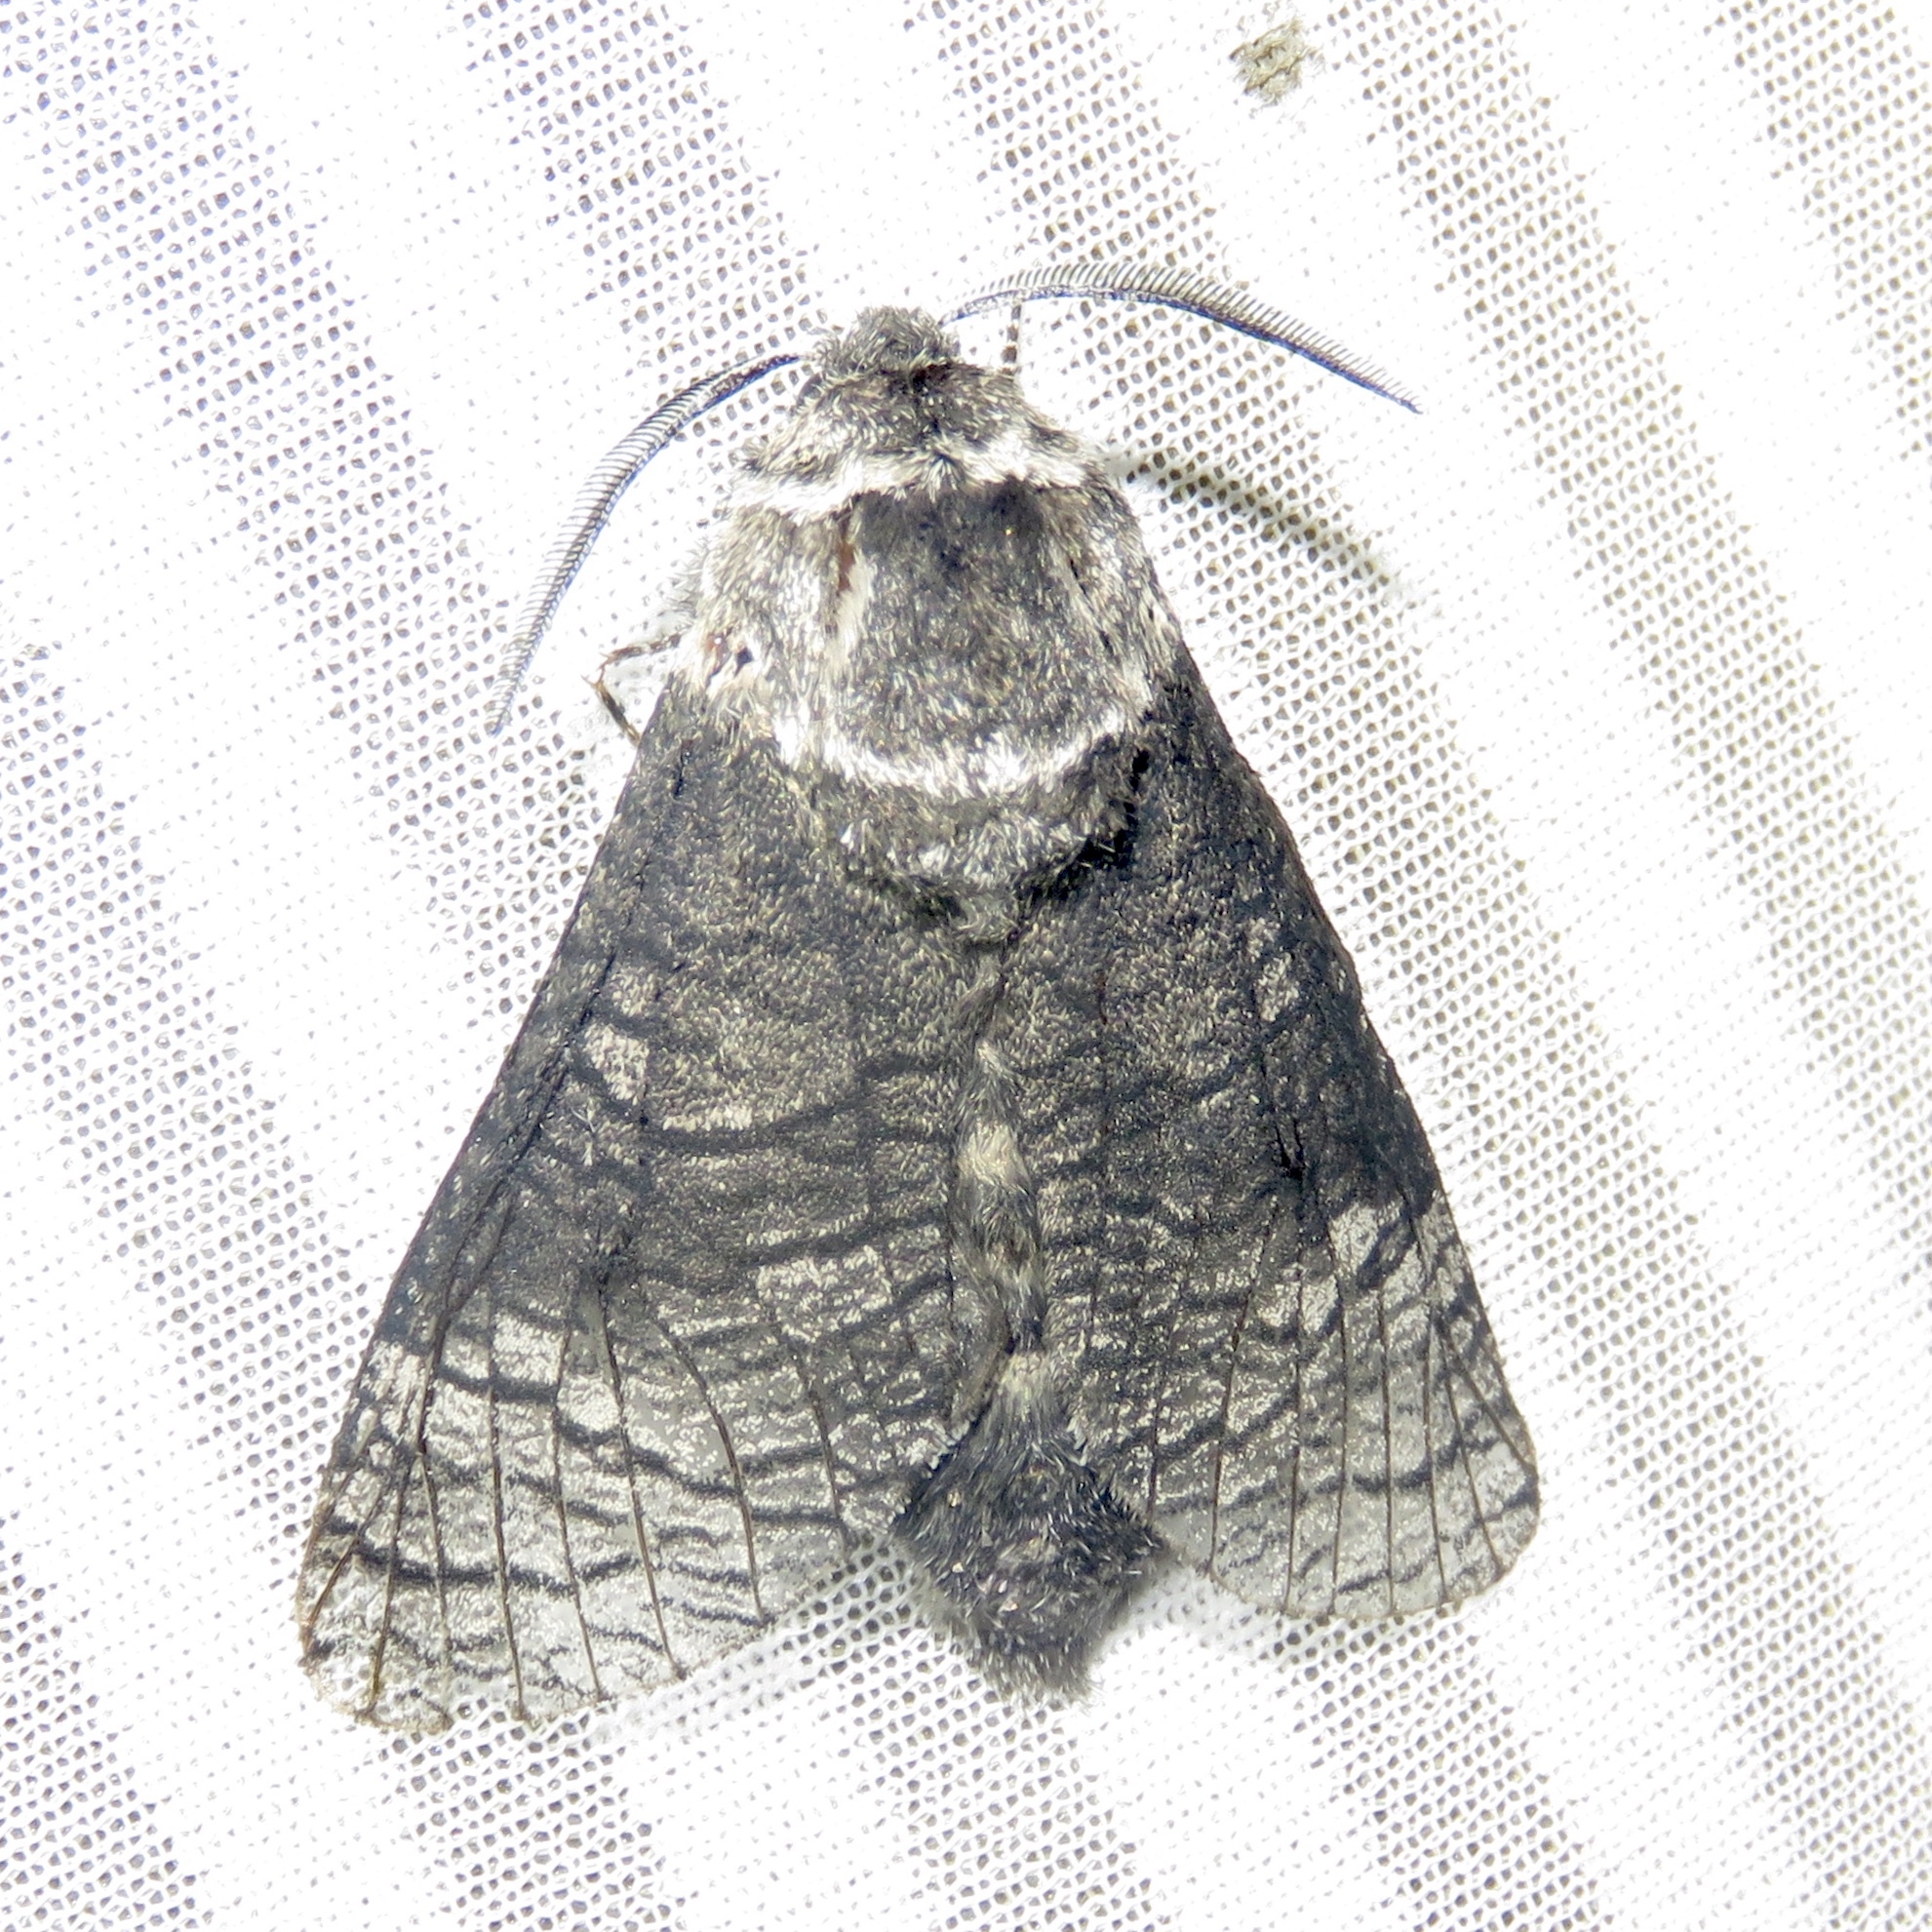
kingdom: Animalia
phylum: Arthropoda
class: Insecta
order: Lepidoptera
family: Cossidae
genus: Acossus
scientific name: Acossus centerensis
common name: Poplar carpenterworm moth
